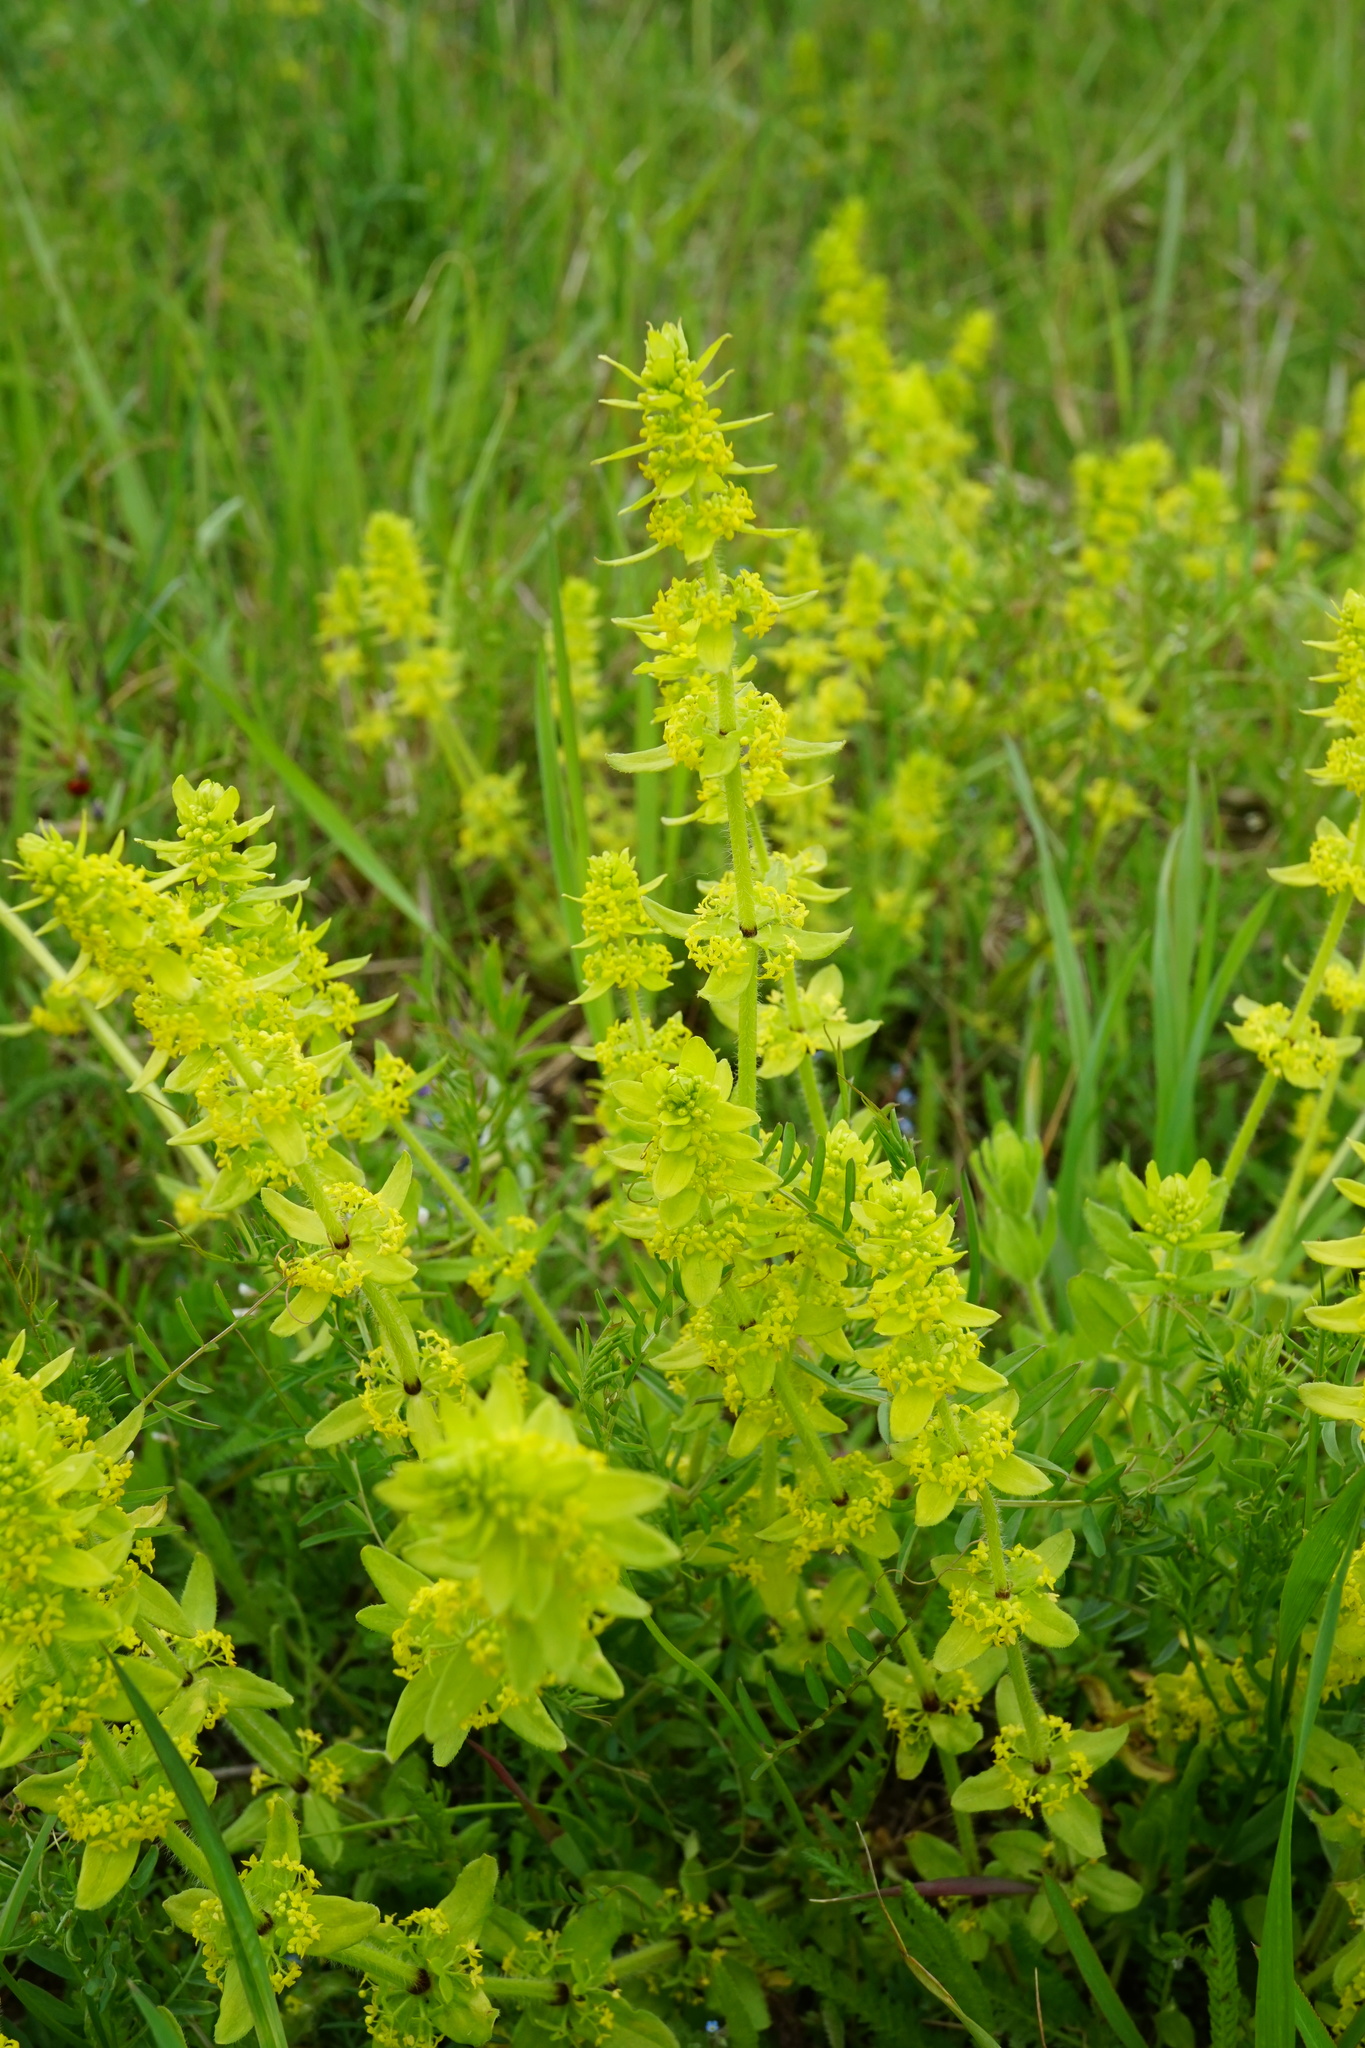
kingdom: Plantae
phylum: Tracheophyta
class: Magnoliopsida
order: Gentianales
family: Rubiaceae
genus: Cruciata
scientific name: Cruciata laevipes
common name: Crosswort
